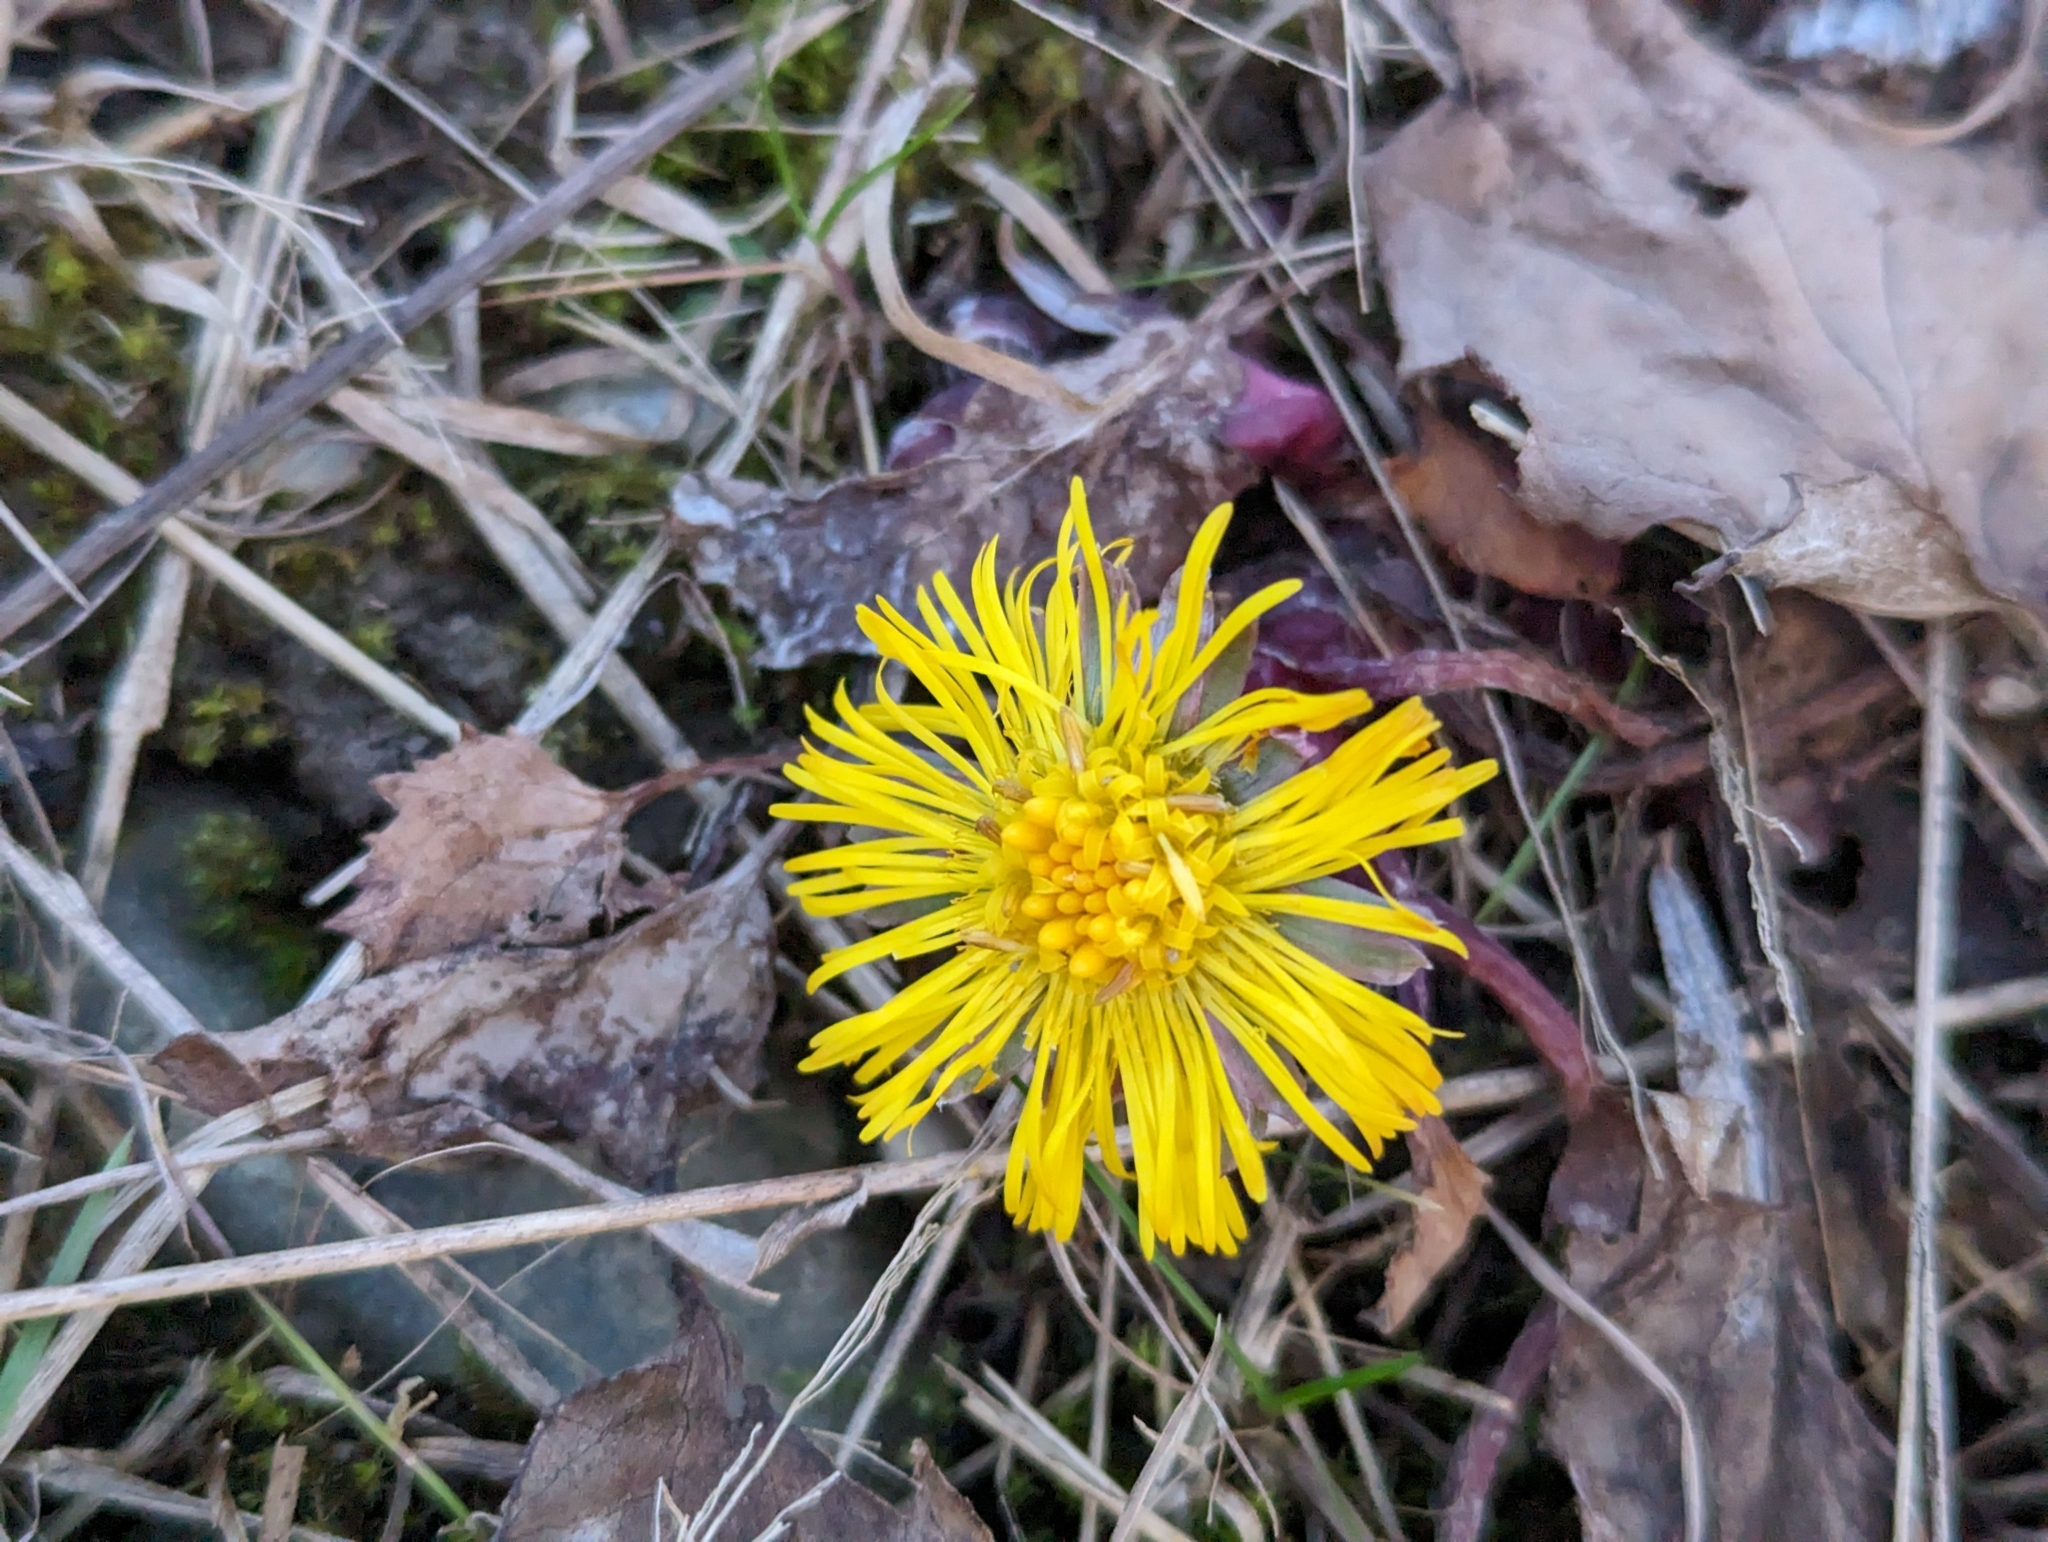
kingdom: Plantae
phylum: Tracheophyta
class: Magnoliopsida
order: Asterales
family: Asteraceae
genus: Tussilago
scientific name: Tussilago farfara
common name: Coltsfoot
